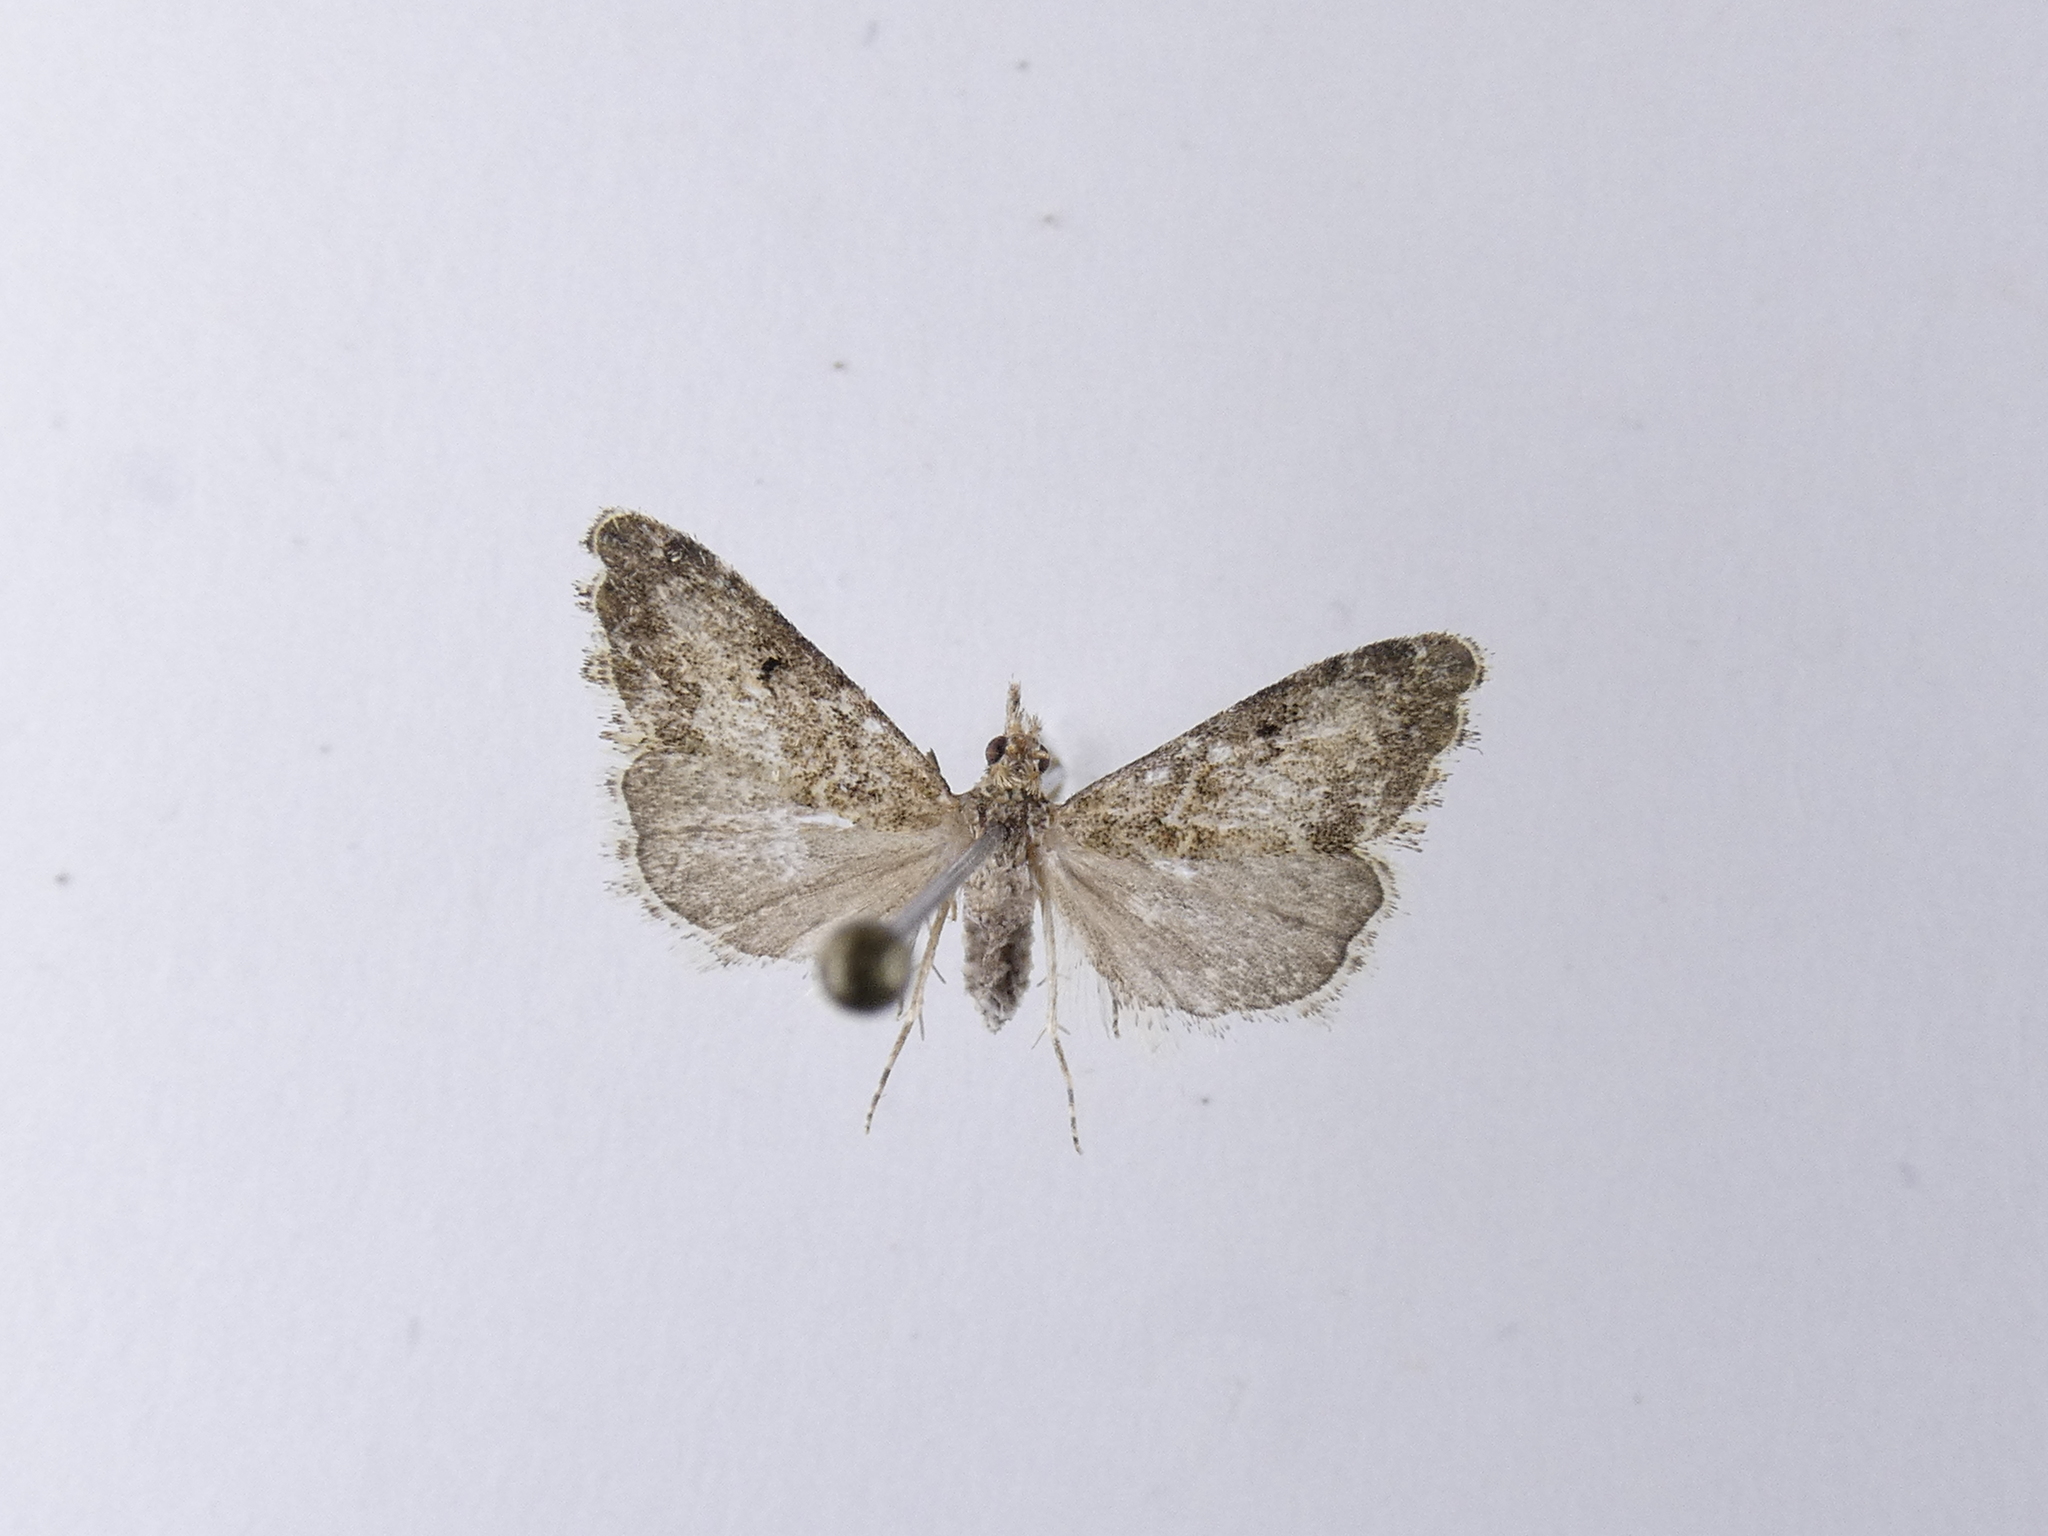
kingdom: Animalia
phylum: Arthropoda
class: Insecta
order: Lepidoptera
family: Crambidae
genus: Glaucocharis
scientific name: Glaucocharis elaina
